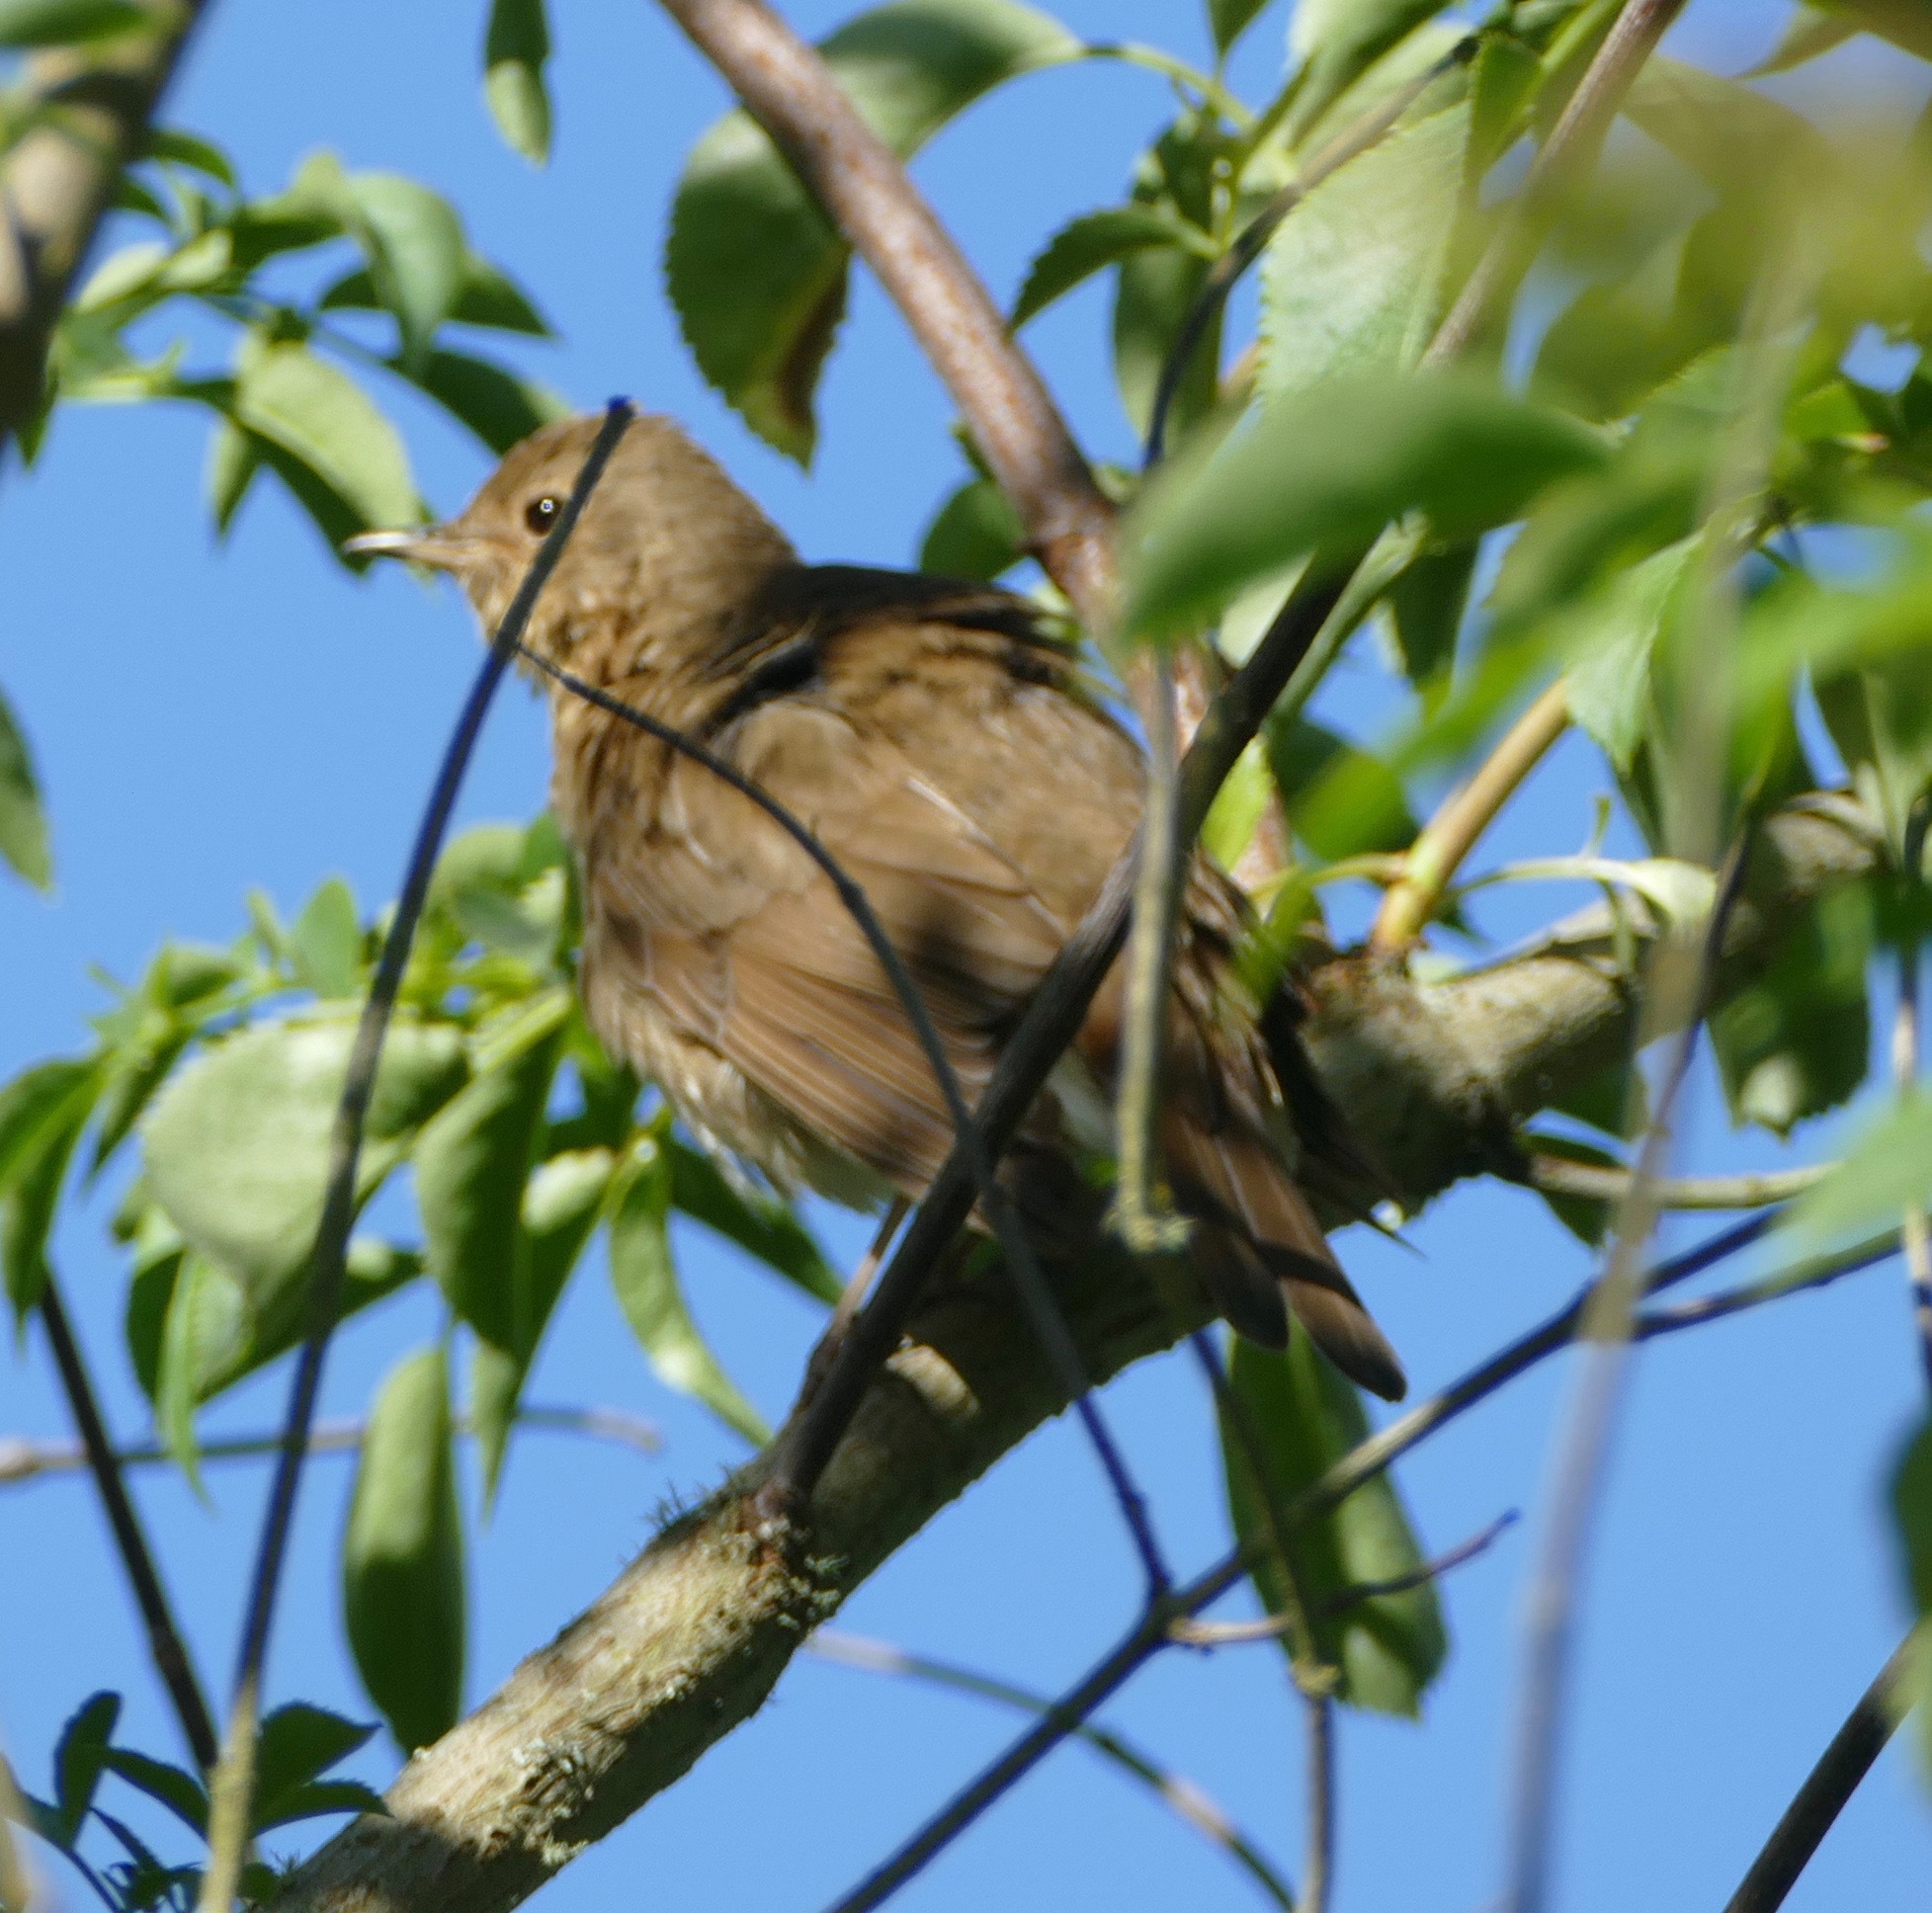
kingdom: Animalia
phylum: Chordata
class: Aves
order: Passeriformes
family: Turdidae
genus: Catharus
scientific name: Catharus ustulatus
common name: Swainson's thrush
